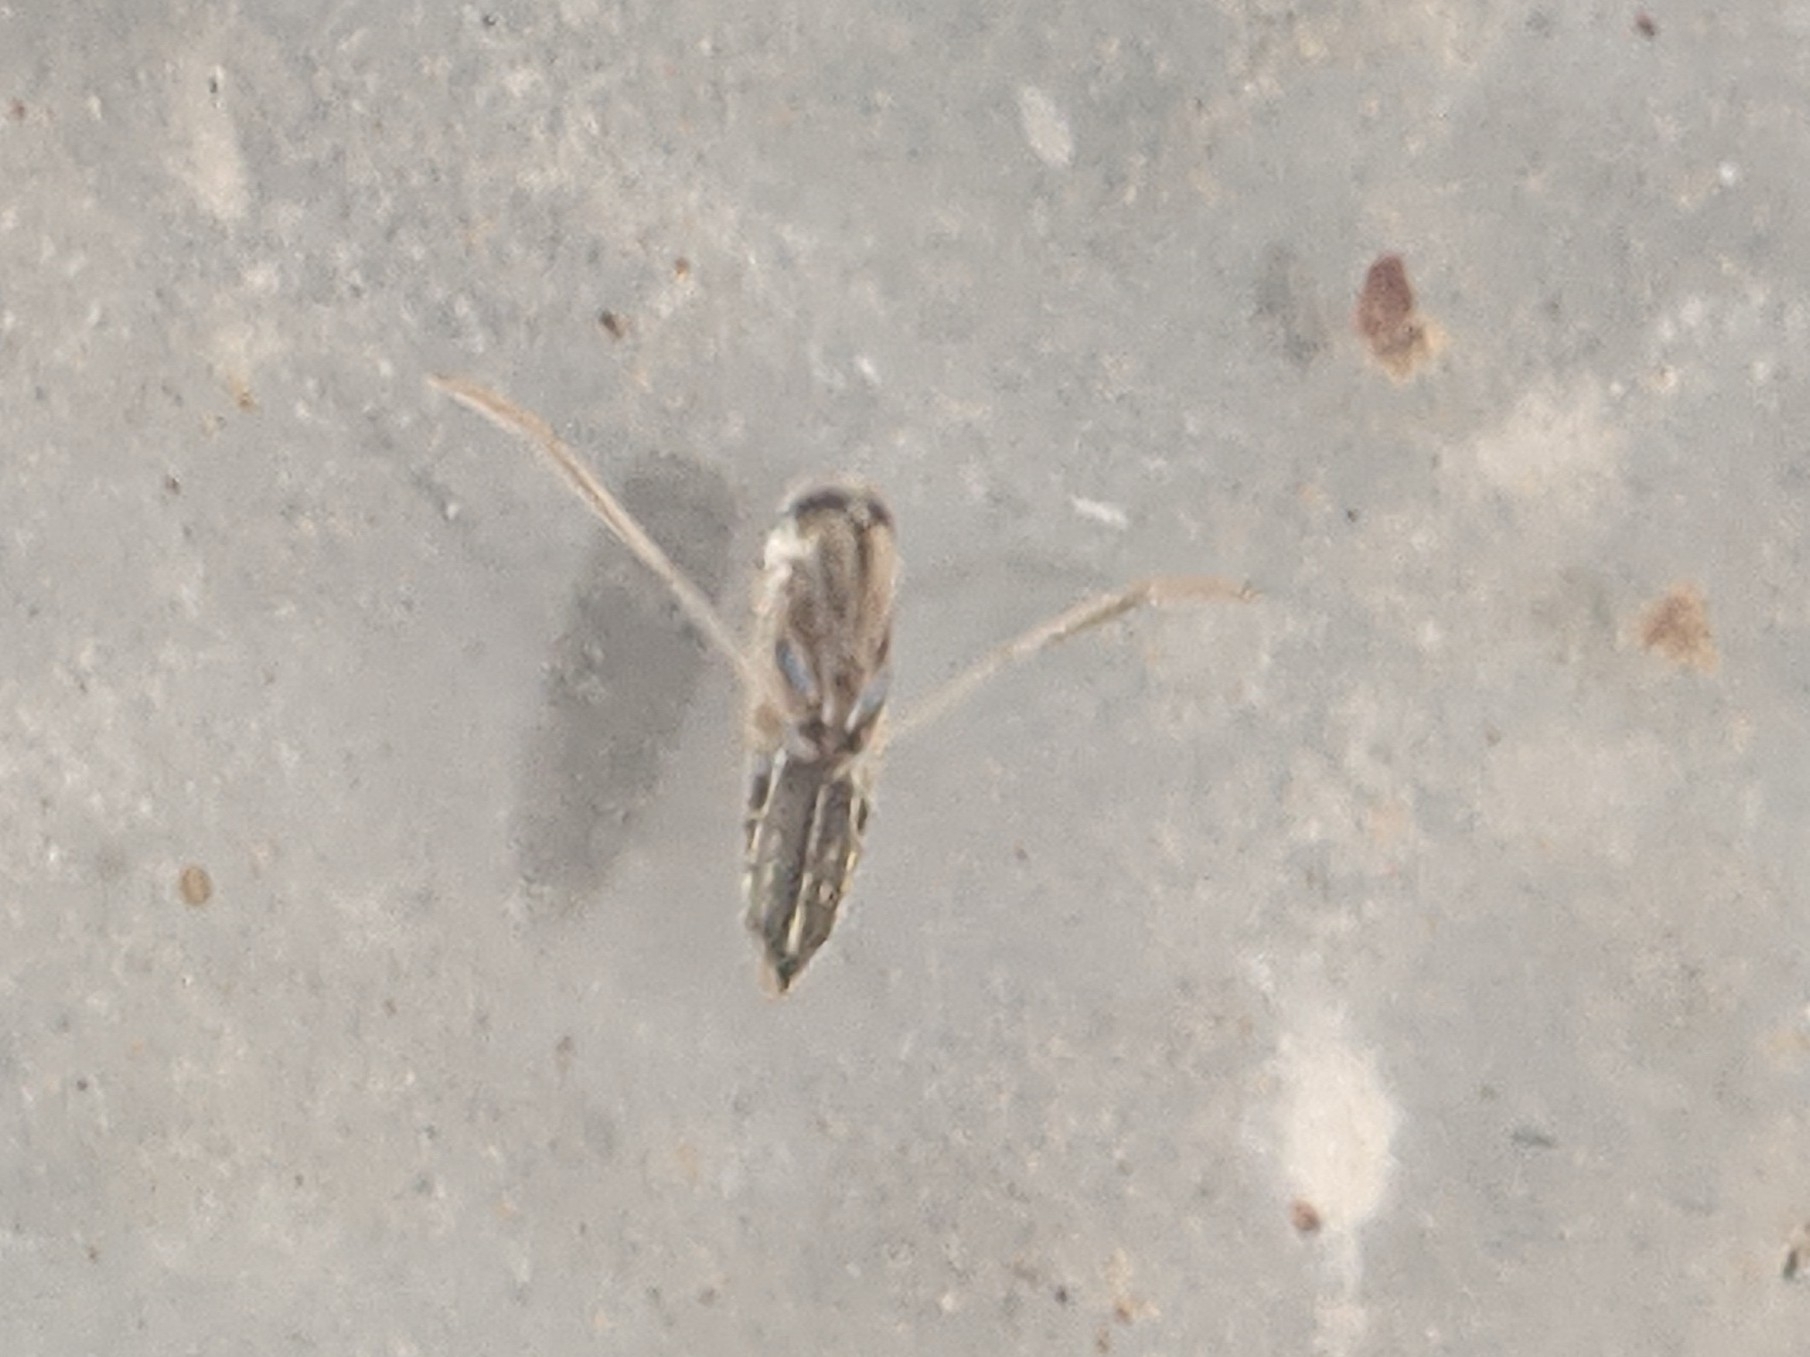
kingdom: Animalia
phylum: Arthropoda
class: Insecta
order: Hemiptera
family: Notonectidae
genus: Buenoa
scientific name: Buenoa
